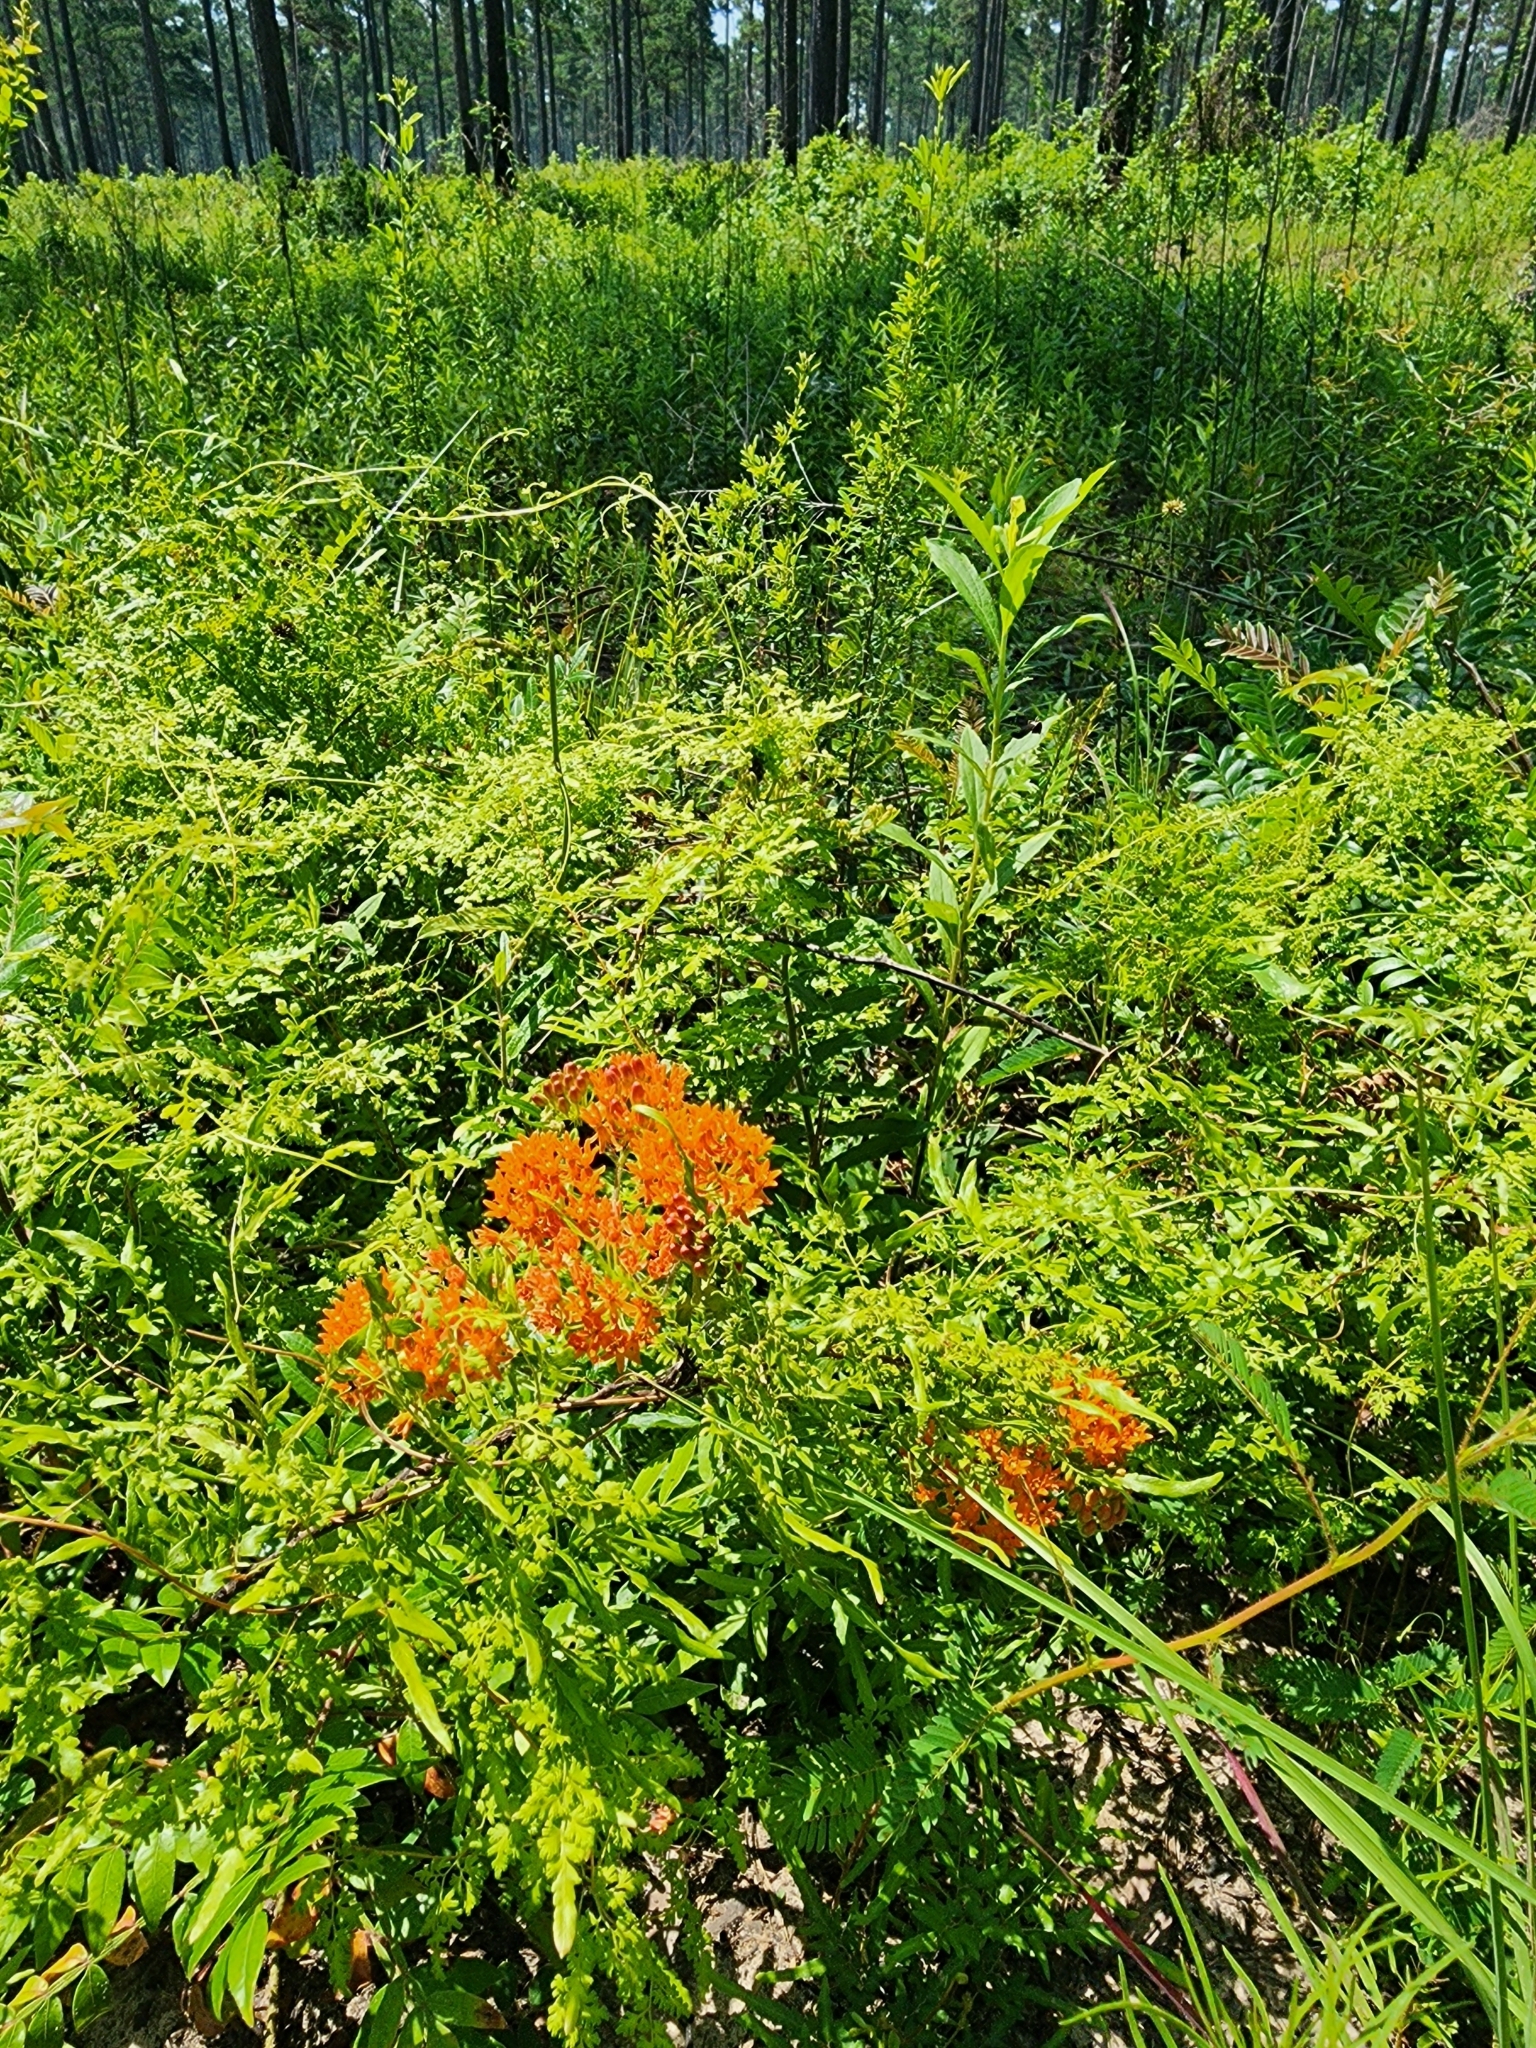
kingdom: Plantae
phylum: Tracheophyta
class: Magnoliopsida
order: Gentianales
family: Apocynaceae
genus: Asclepias
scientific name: Asclepias tuberosa
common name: Butterfly milkweed
